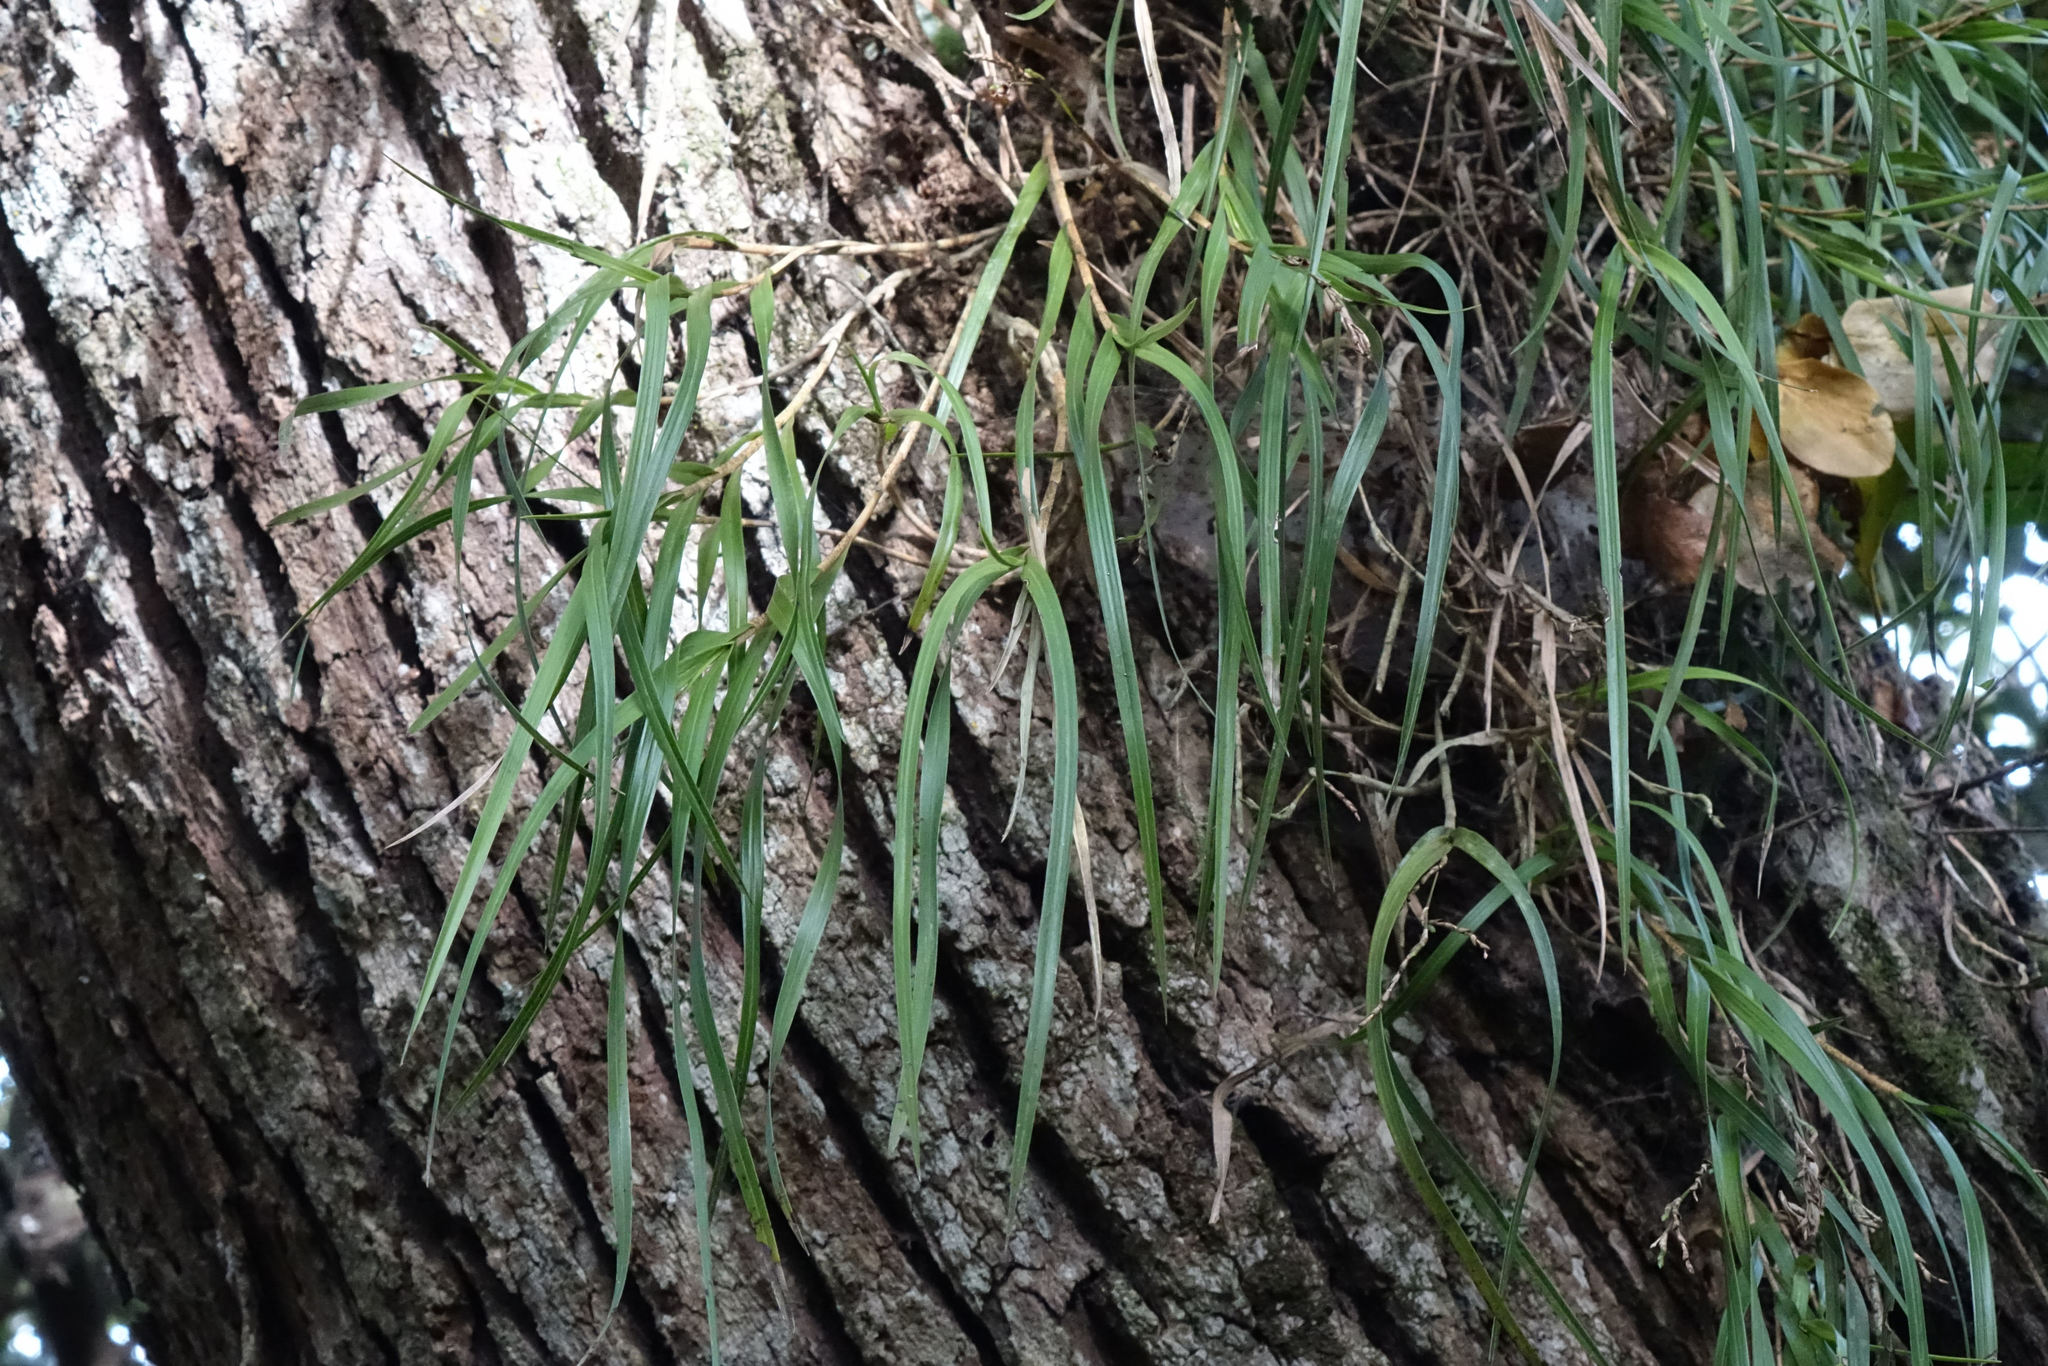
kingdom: Plantae
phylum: Tracheophyta
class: Liliopsida
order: Asparagales
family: Orchidaceae
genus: Earina
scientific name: Earina mucronata
